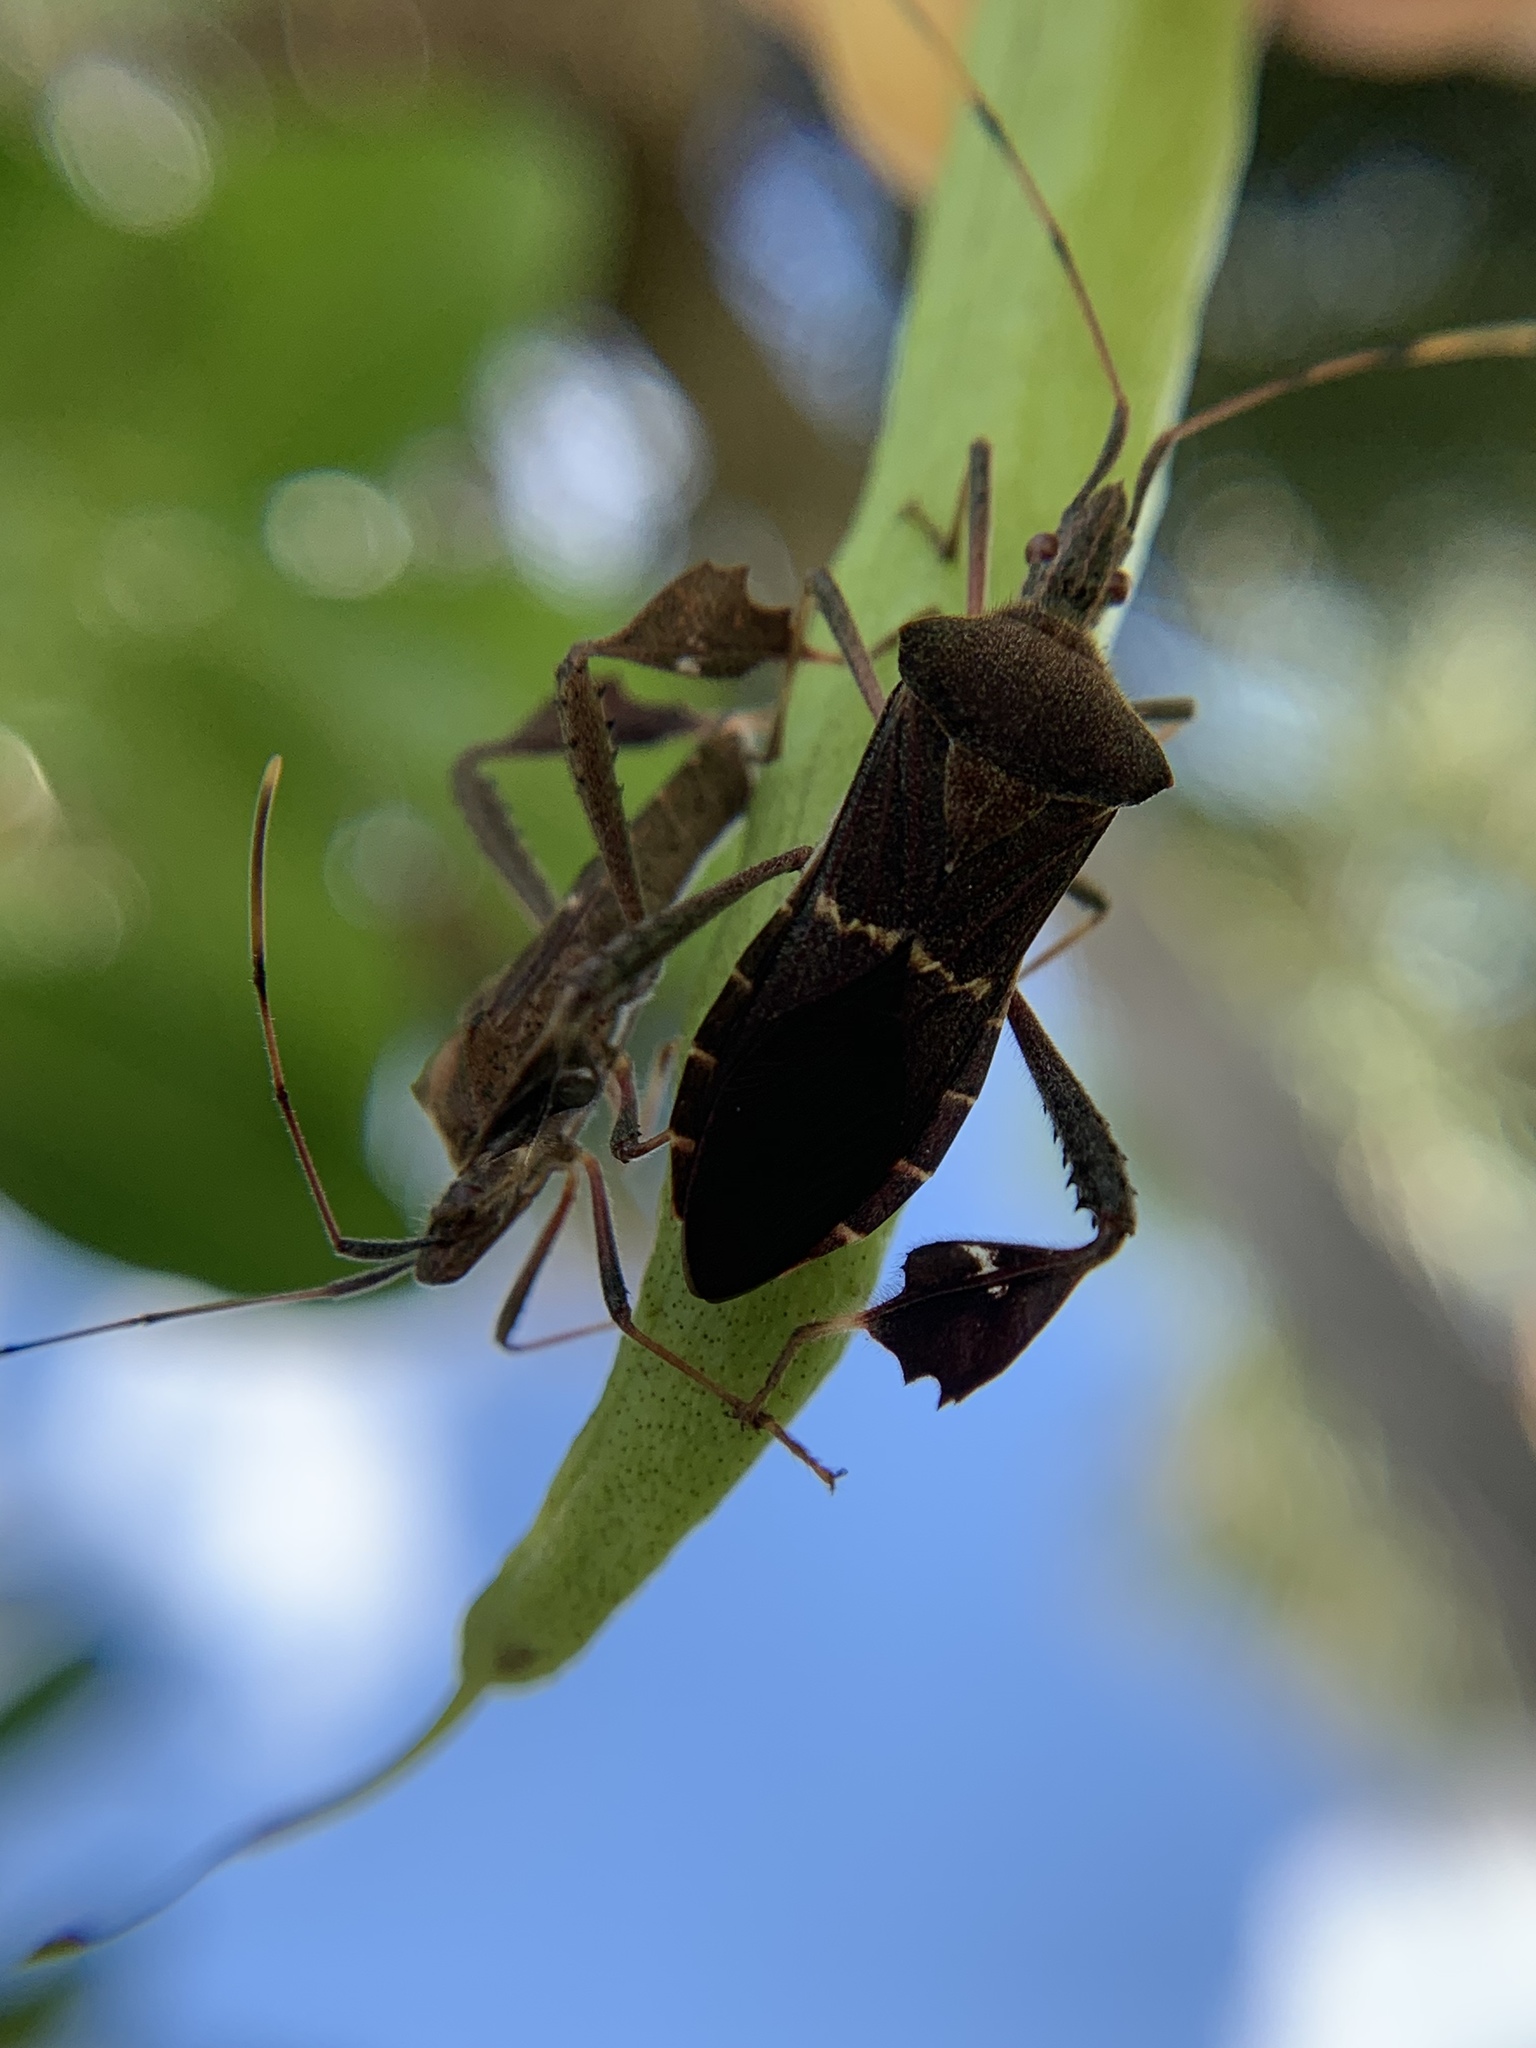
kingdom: Animalia
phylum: Arthropoda
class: Insecta
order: Hemiptera
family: Coreidae
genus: Leptoglossus
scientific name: Leptoglossus concolor
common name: Leaf-footed bug
